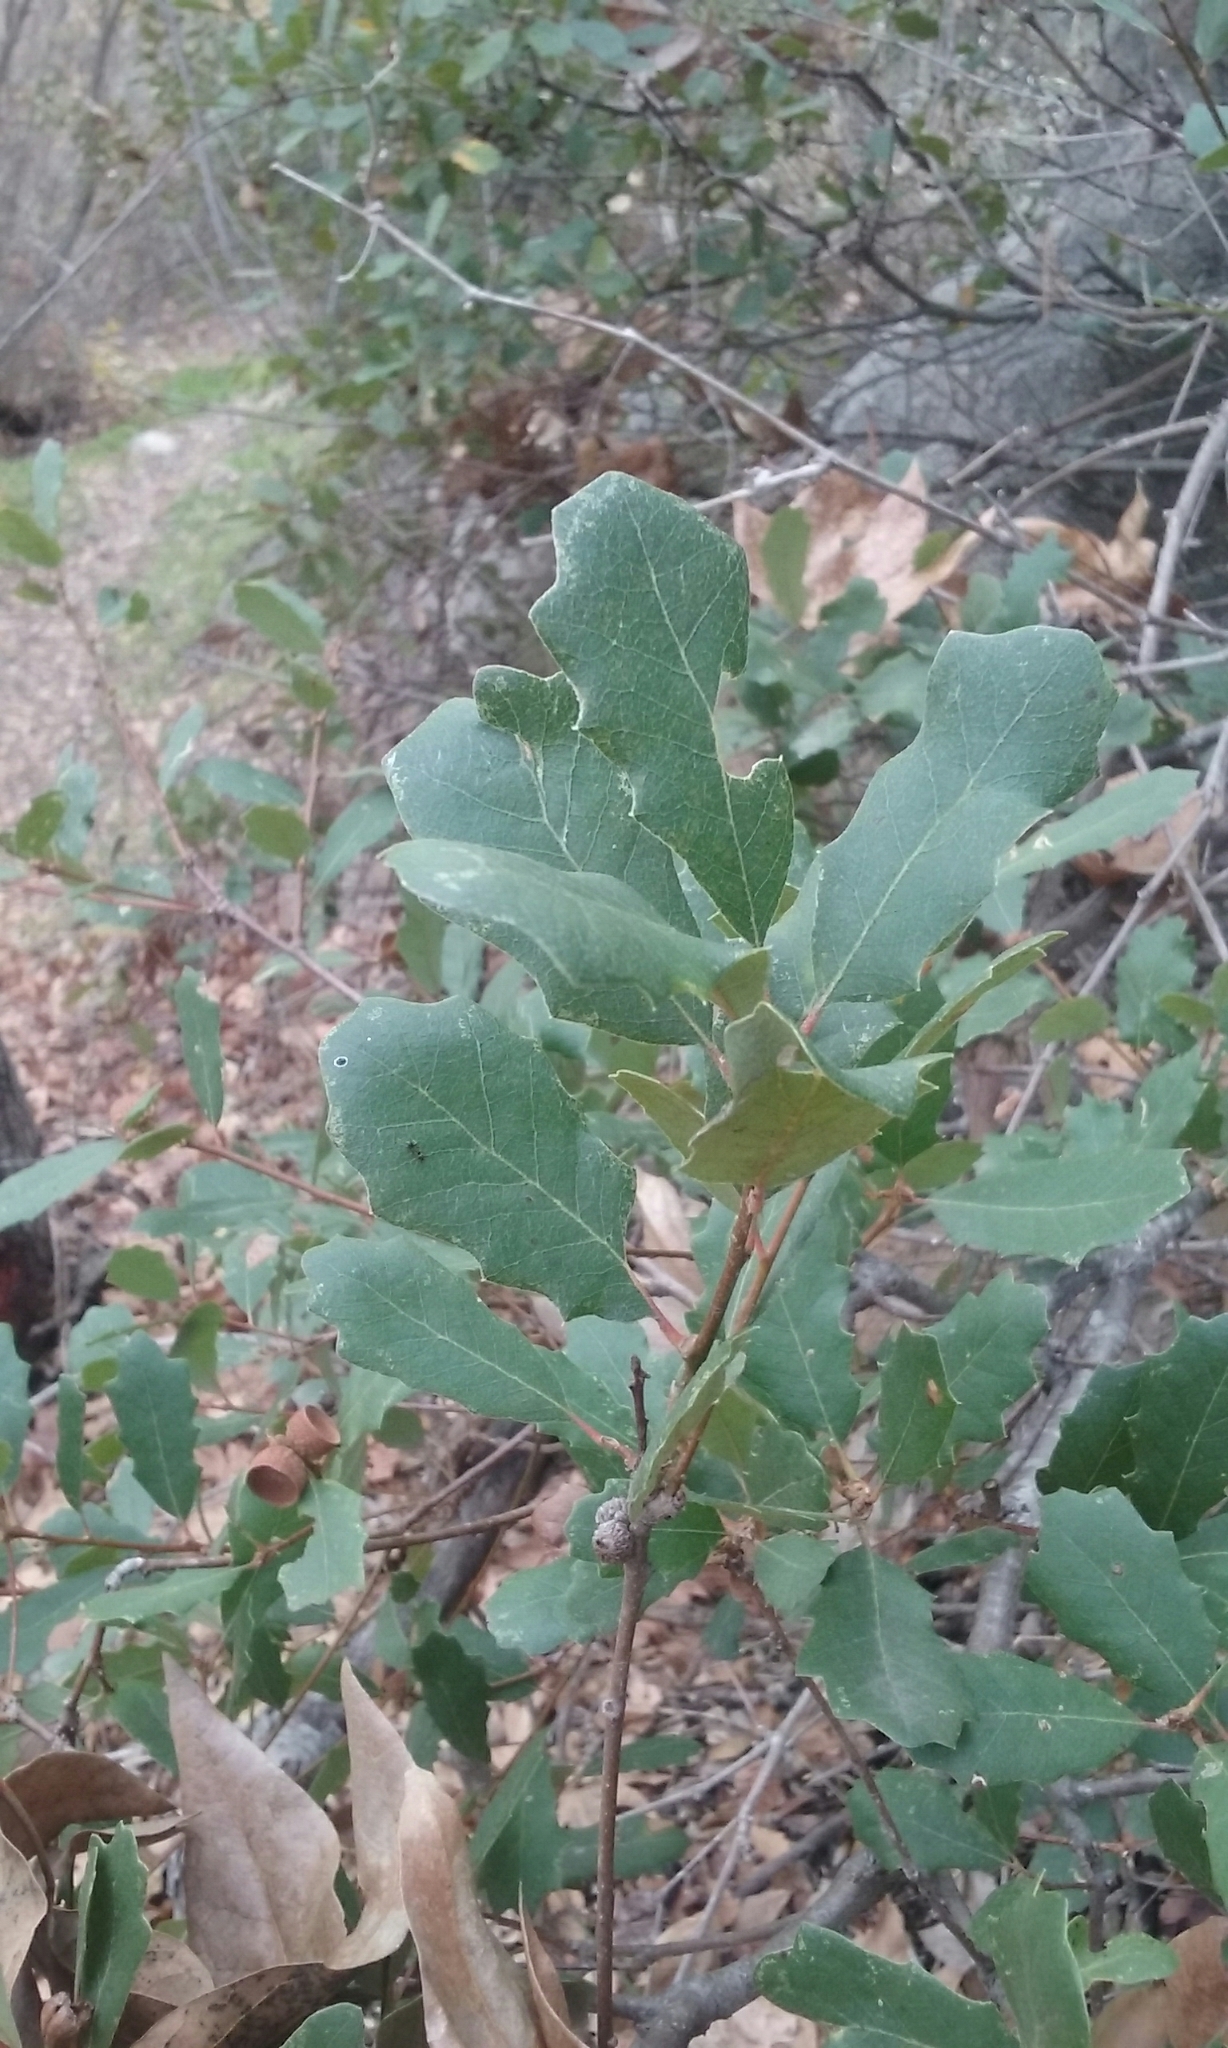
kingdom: Plantae
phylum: Tracheophyta
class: Magnoliopsida
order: Fagales
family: Fagaceae
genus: Quercus
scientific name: Quercus acutidens
